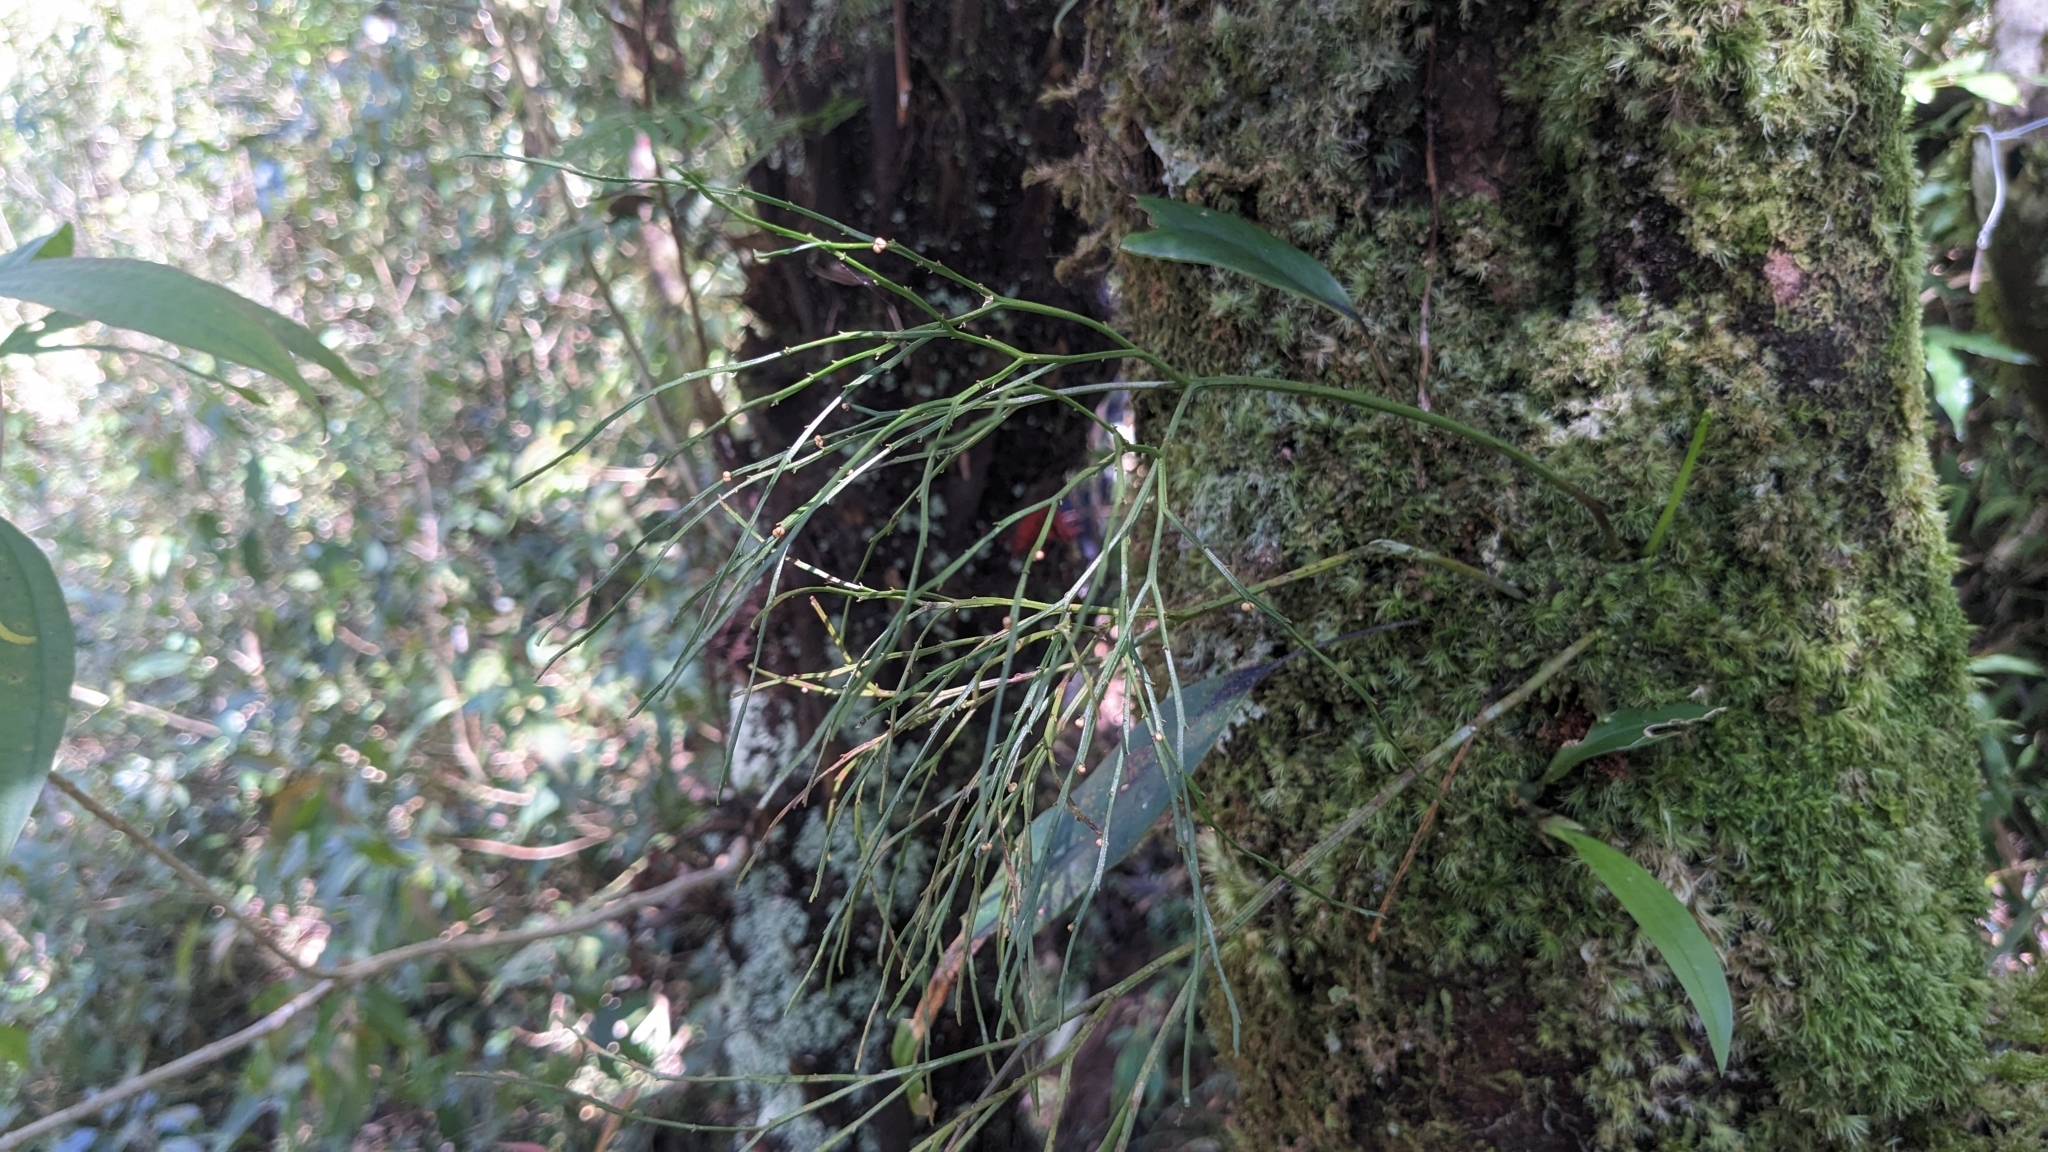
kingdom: Plantae
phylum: Tracheophyta
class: Polypodiopsida
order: Psilotales
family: Psilotaceae
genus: Psilotum
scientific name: Psilotum nudum
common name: Skeleton fork fern
